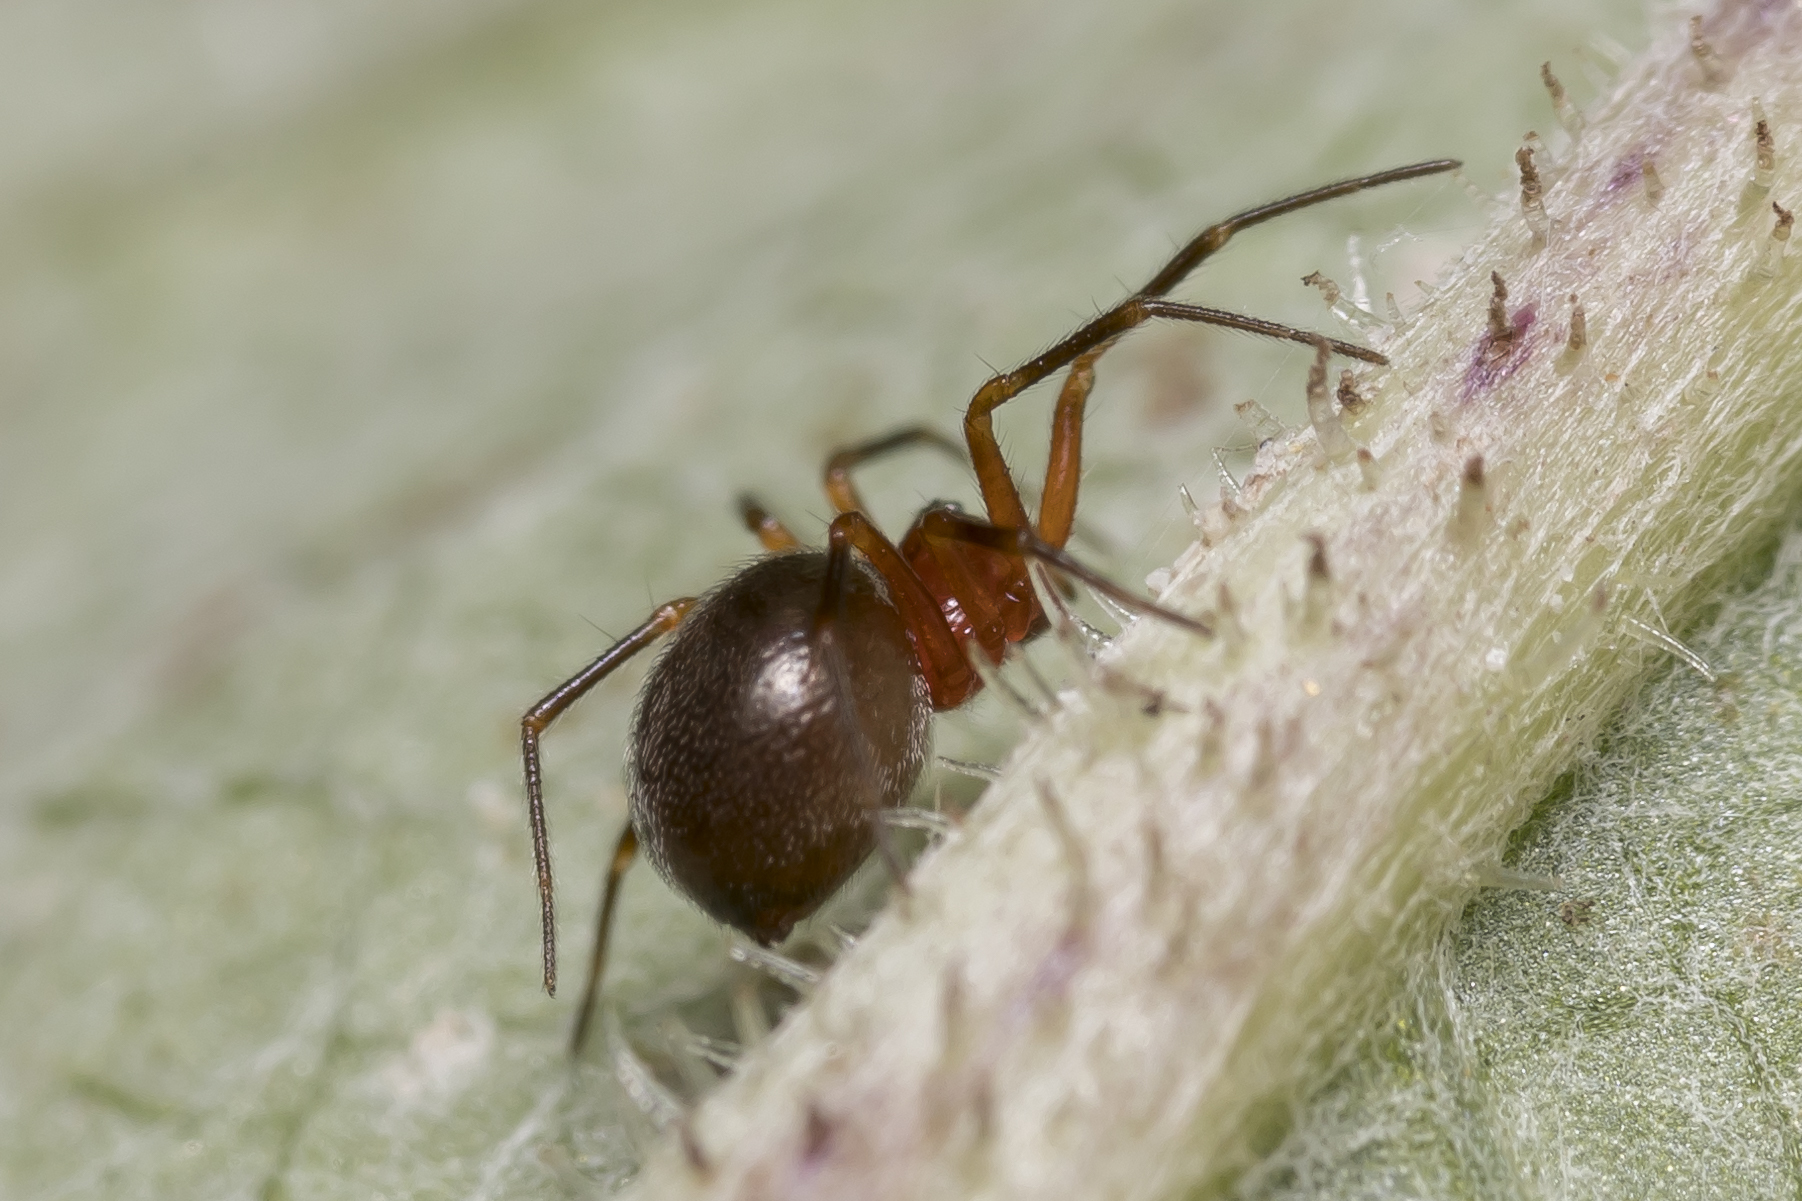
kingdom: Animalia
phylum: Arthropoda
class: Arachnida
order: Araneae
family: Linyphiidae
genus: Trematocephalus
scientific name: Trematocephalus cristatus
